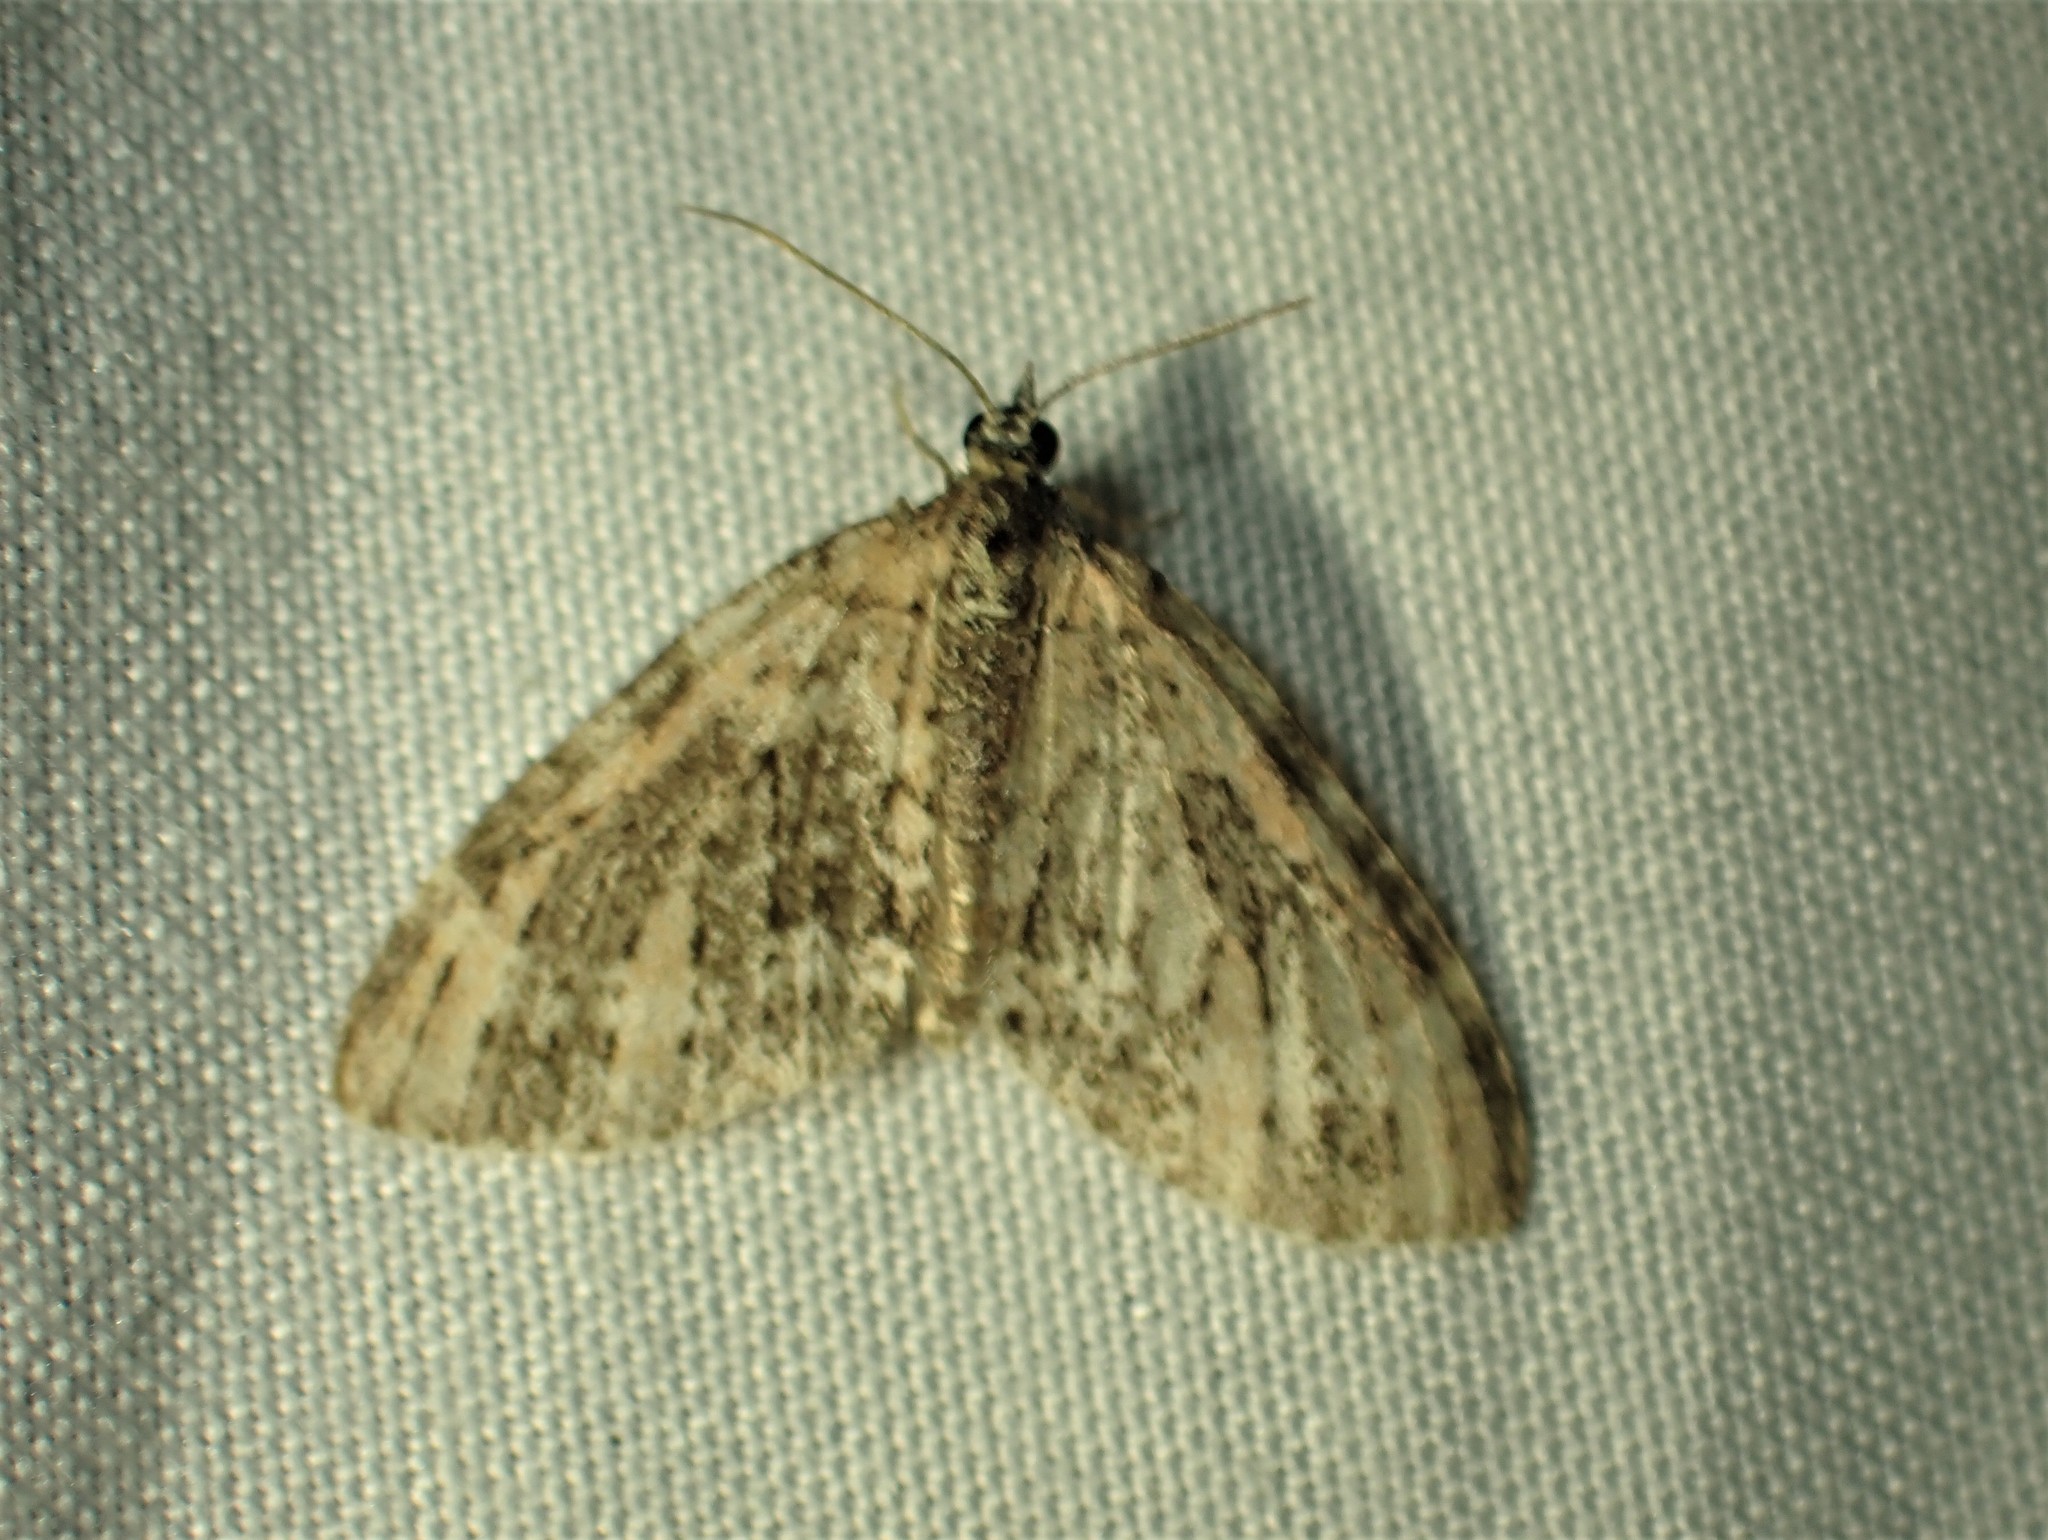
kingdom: Animalia
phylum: Arthropoda
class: Insecta
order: Lepidoptera
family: Geometridae
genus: Acasis
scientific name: Acasis viridata
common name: Olive-and-black carpet moth
